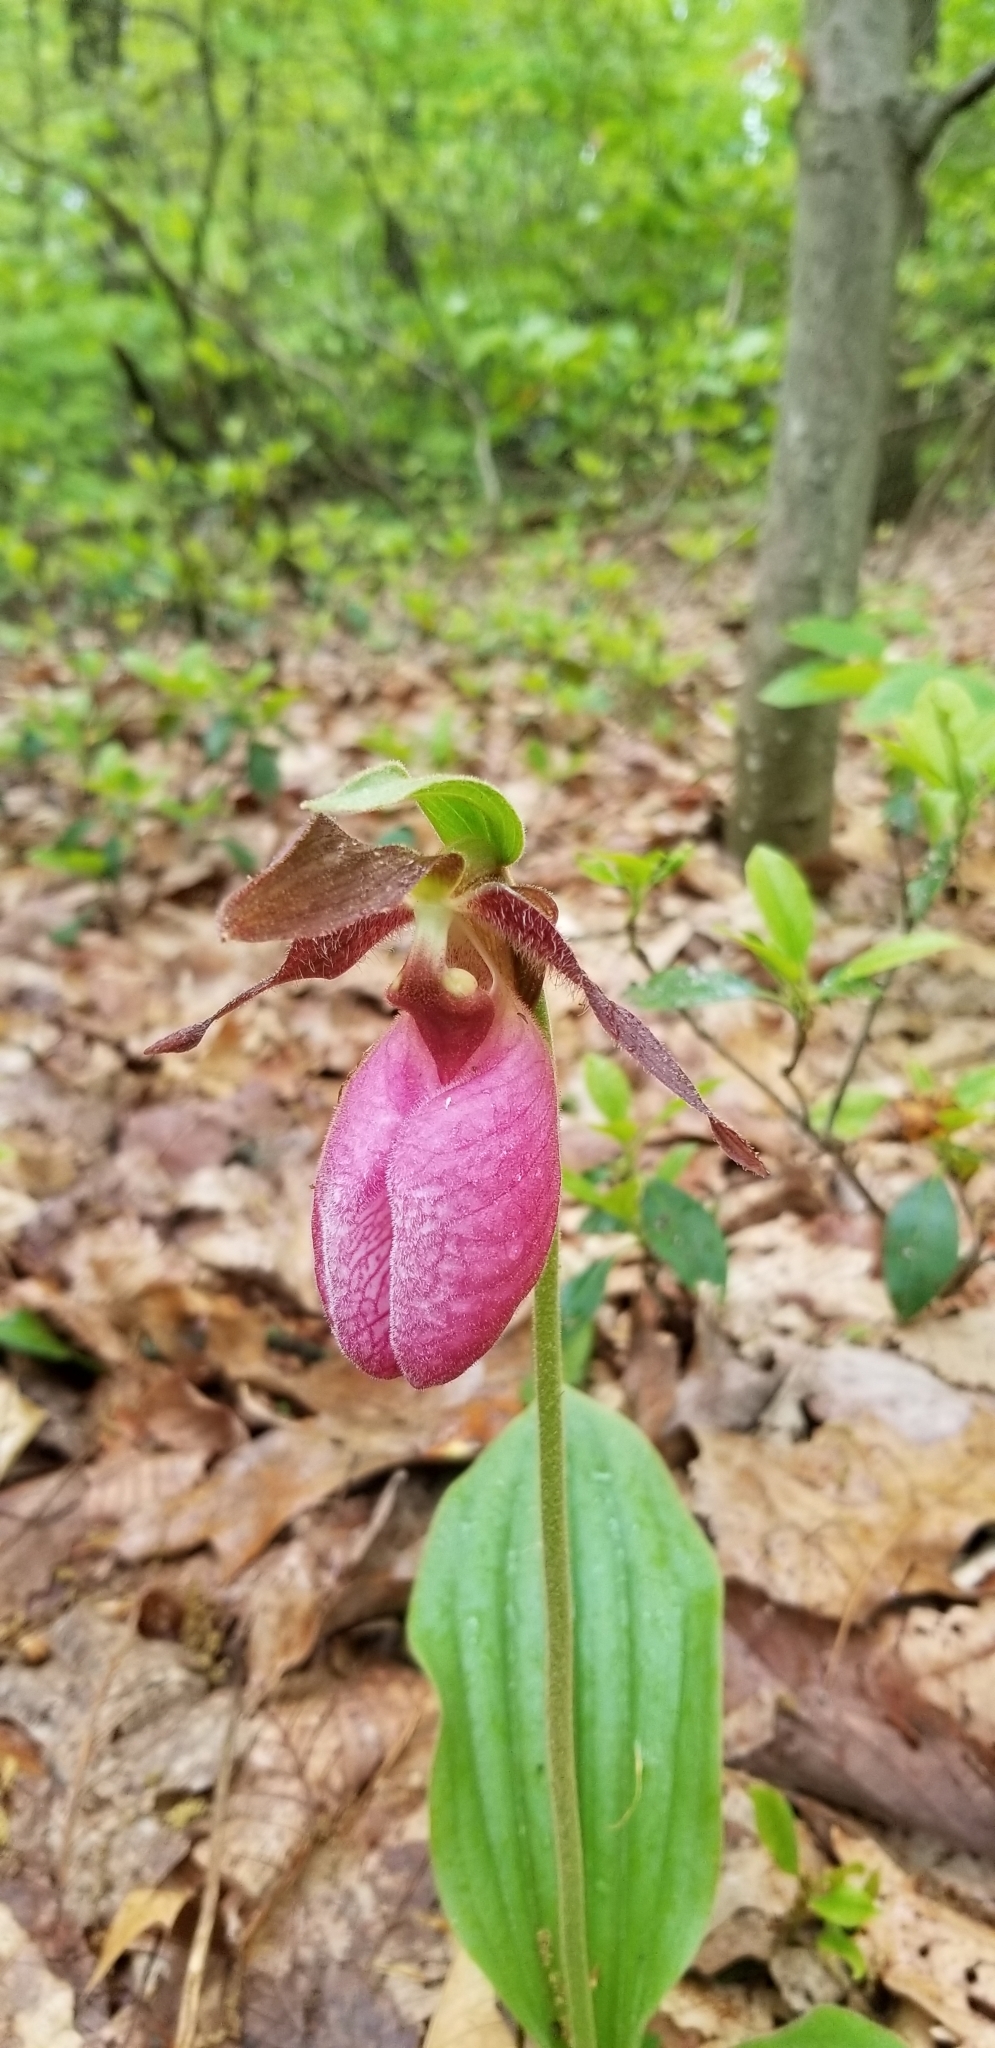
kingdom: Plantae
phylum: Tracheophyta
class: Liliopsida
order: Asparagales
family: Orchidaceae
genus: Cypripedium
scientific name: Cypripedium acaule
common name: Pink lady's-slipper
